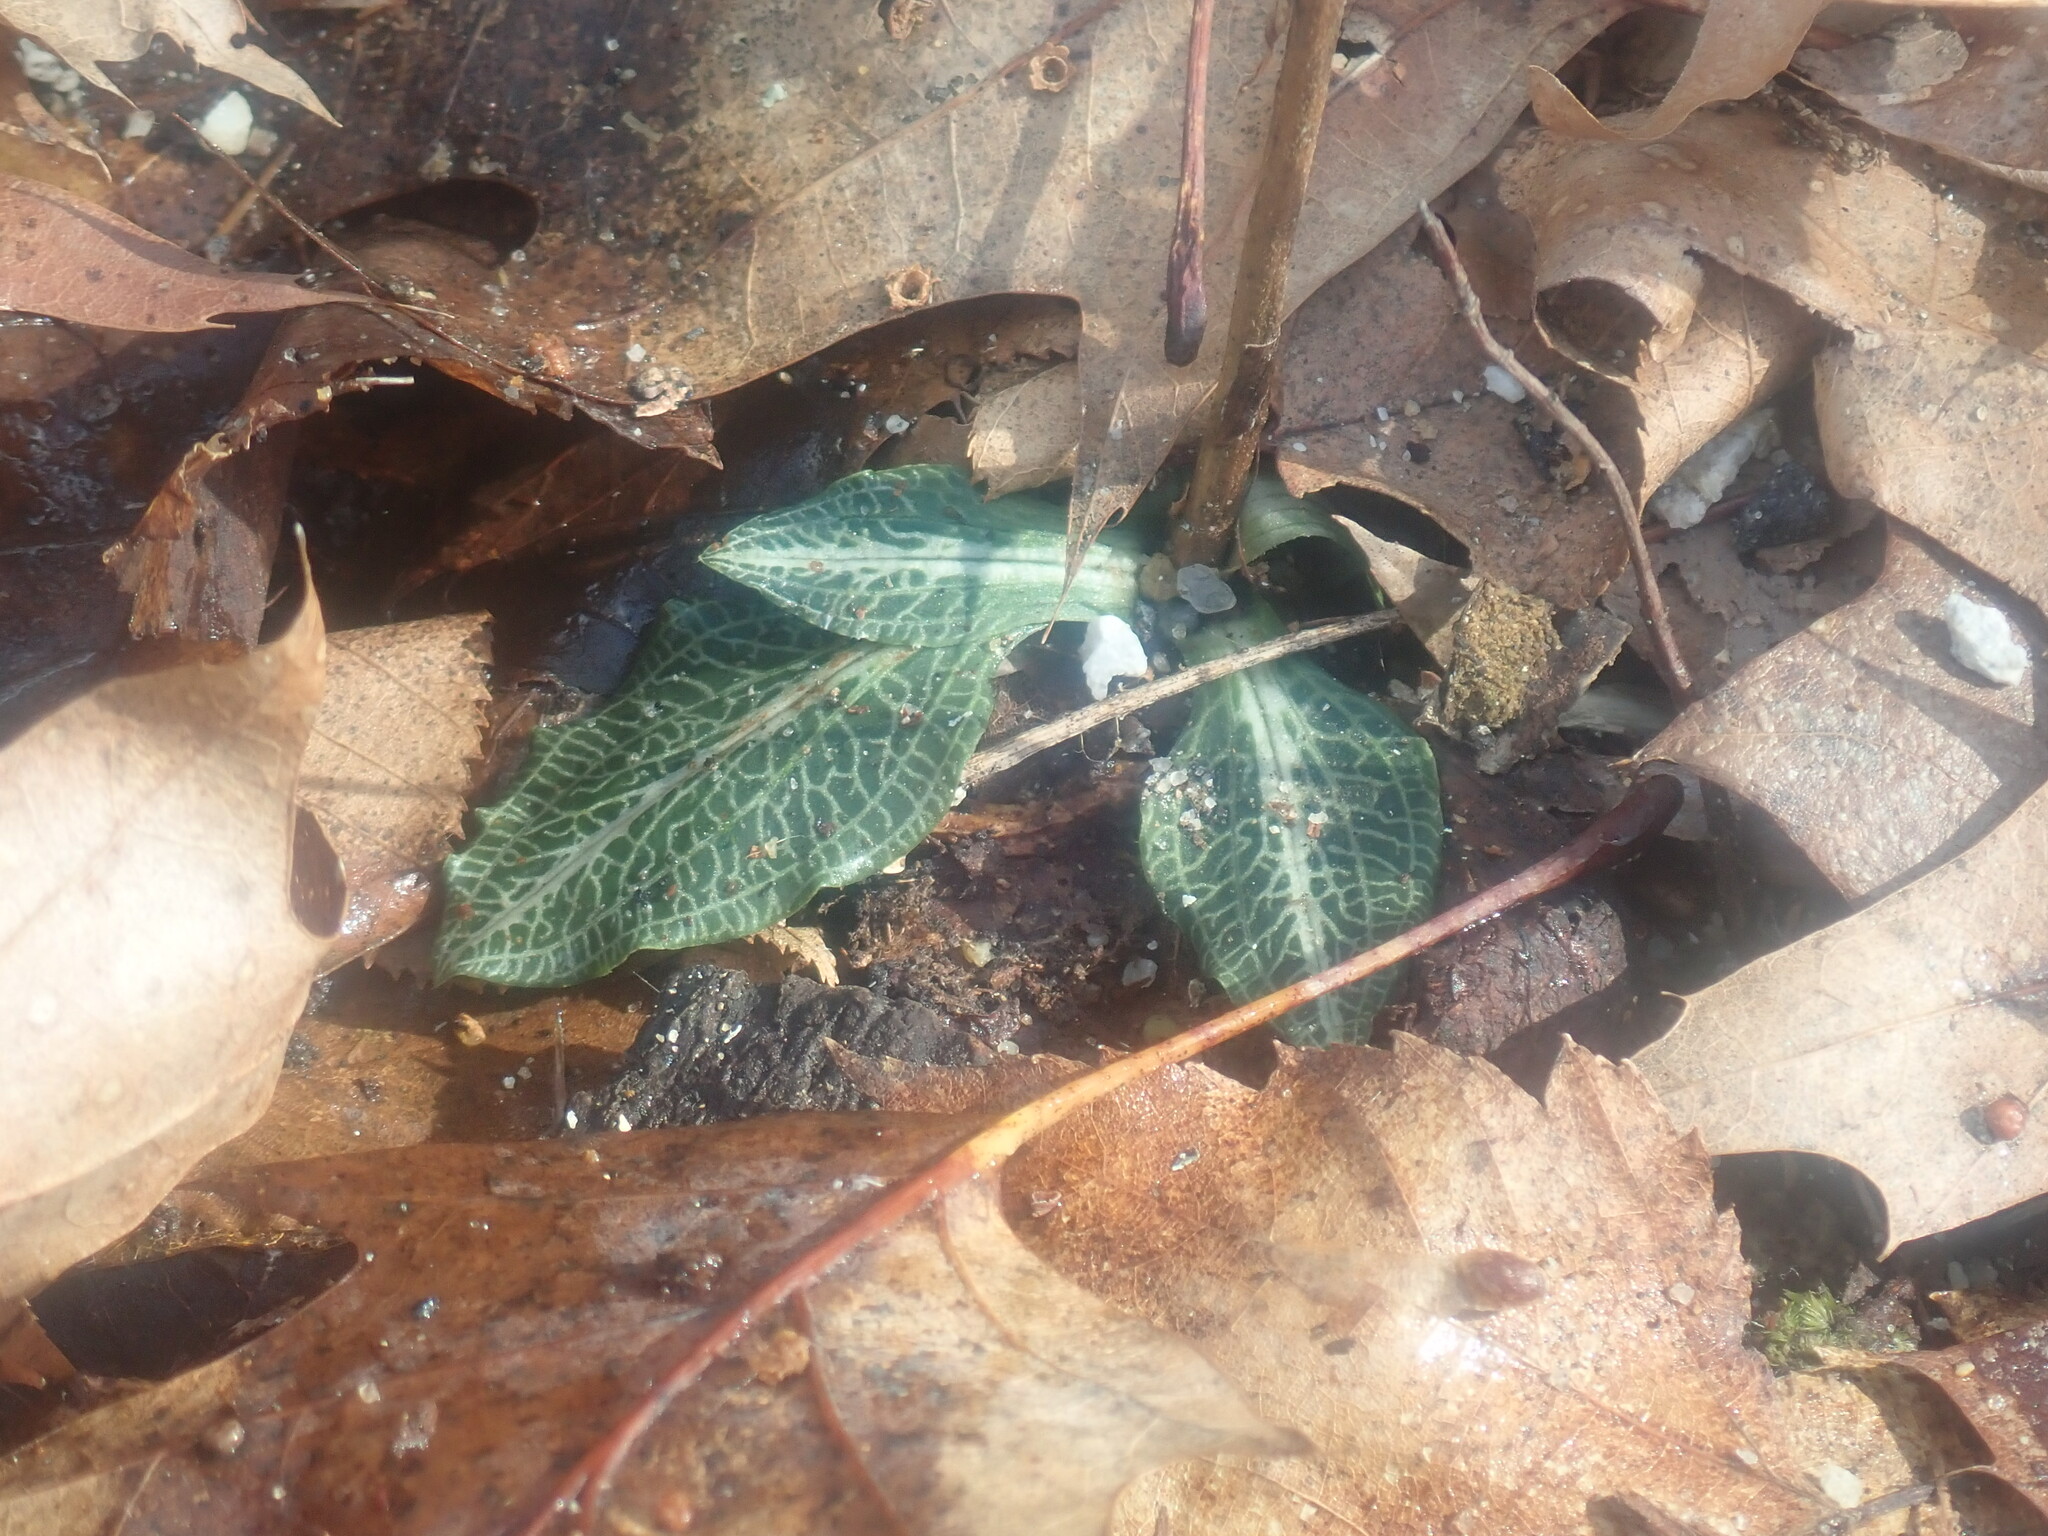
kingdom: Plantae
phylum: Tracheophyta
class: Liliopsida
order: Asparagales
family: Orchidaceae
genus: Goodyera
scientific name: Goodyera pubescens
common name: Downy rattlesnake-plantain
